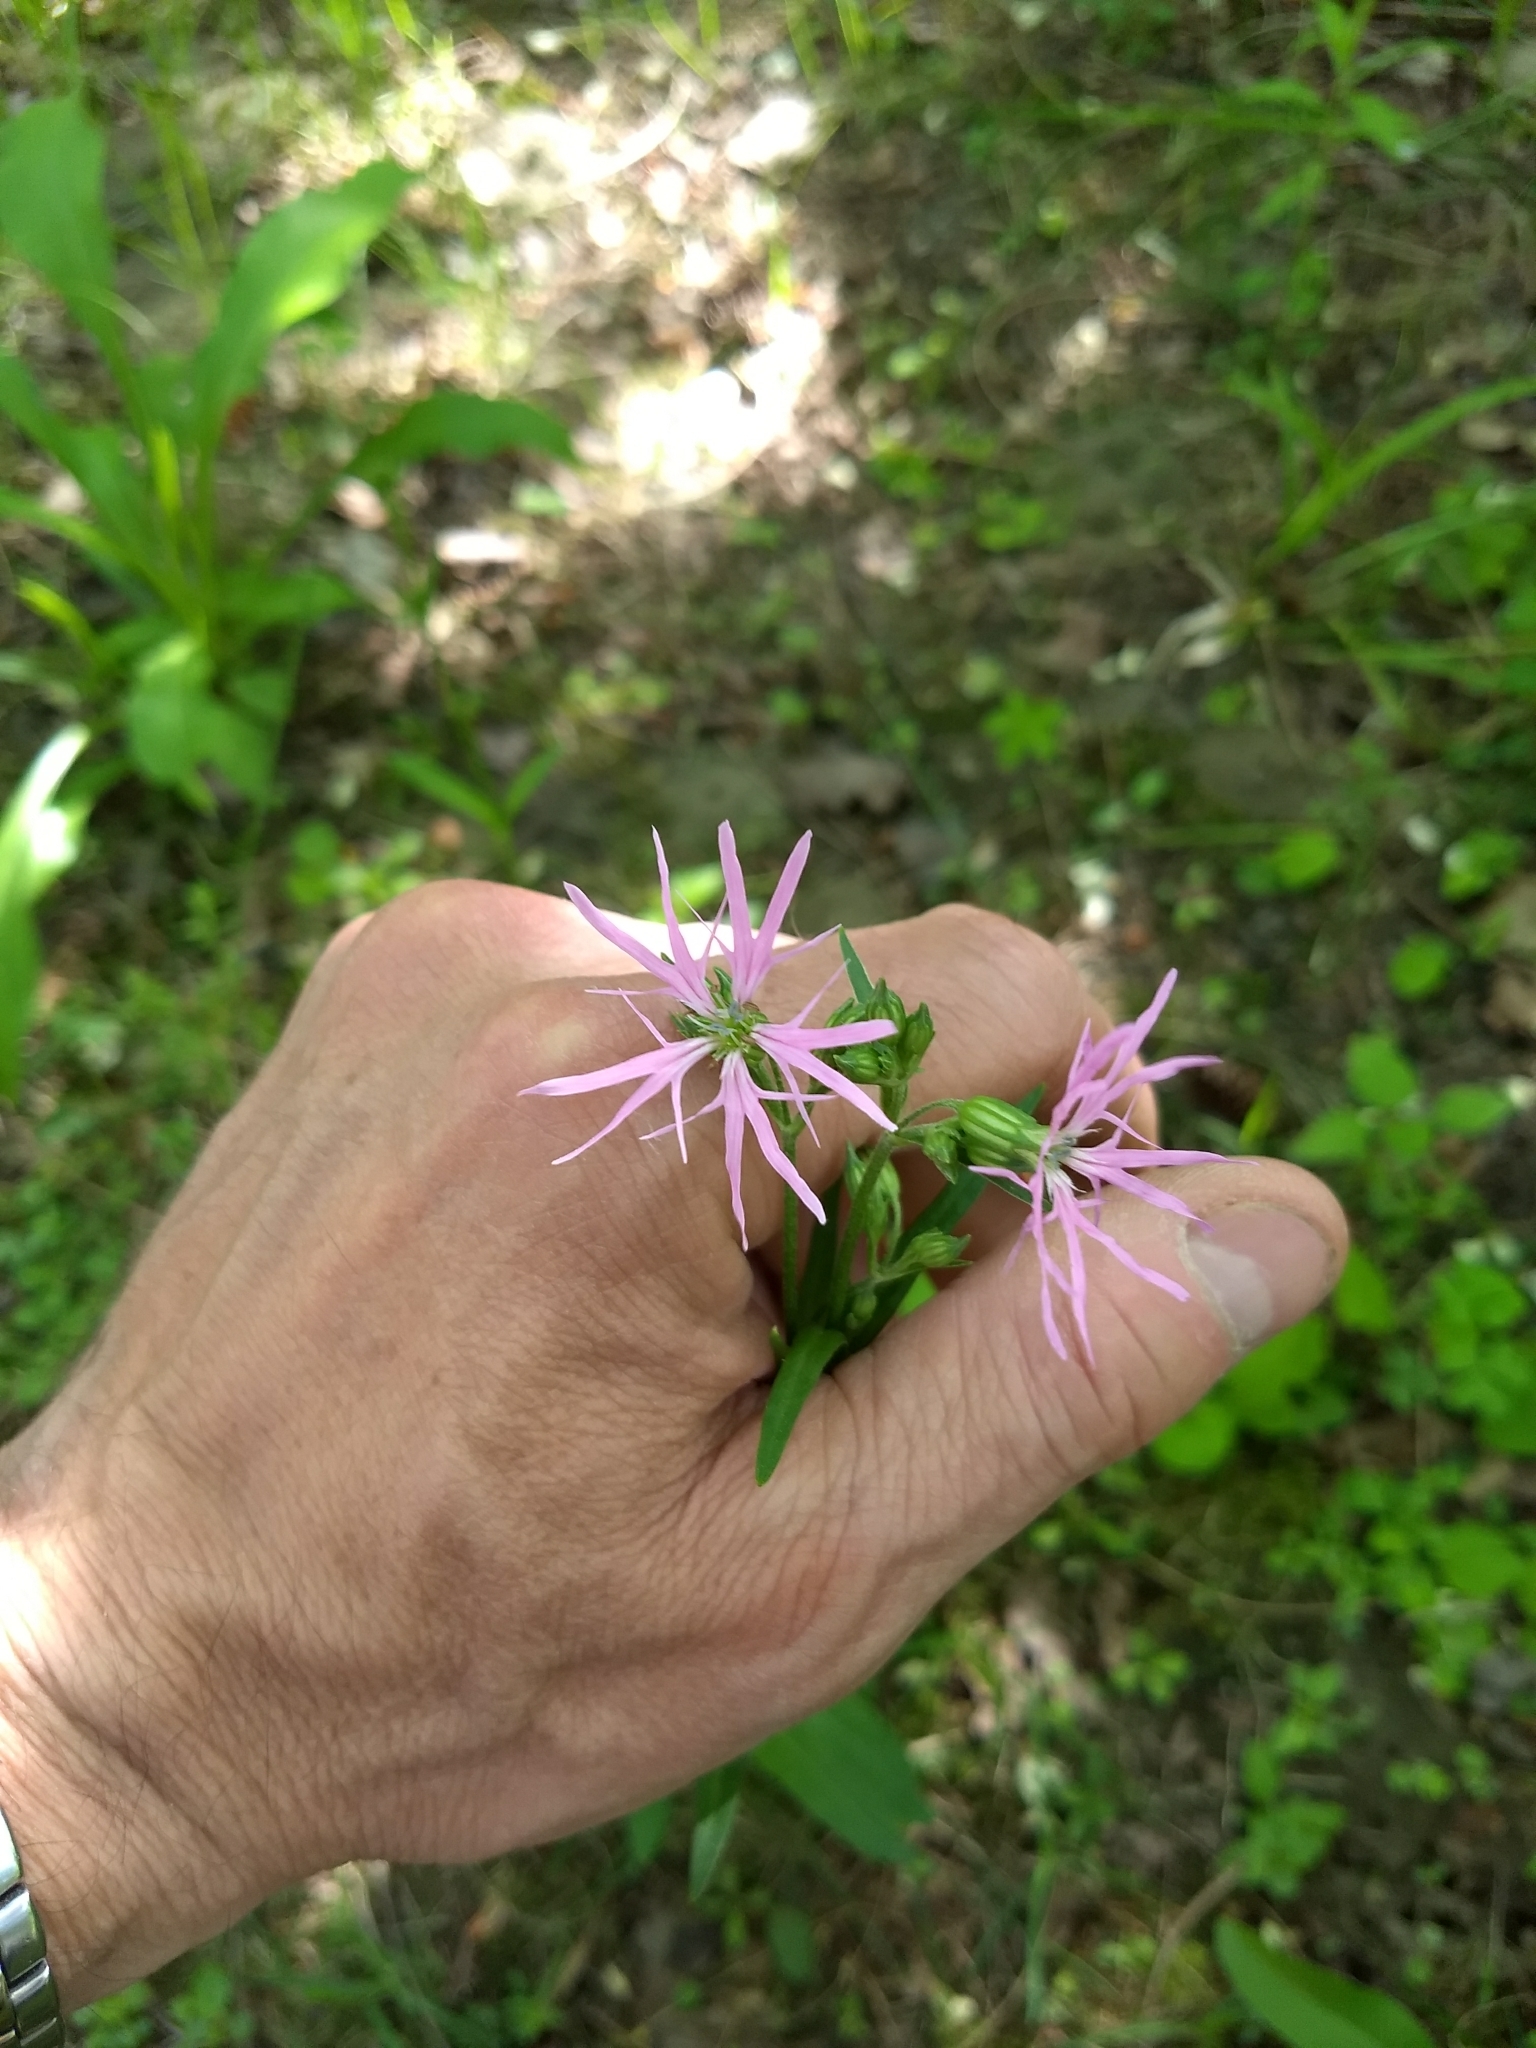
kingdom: Plantae
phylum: Tracheophyta
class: Magnoliopsida
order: Caryophyllales
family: Caryophyllaceae
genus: Silene
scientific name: Silene flos-cuculi
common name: Ragged-robin
